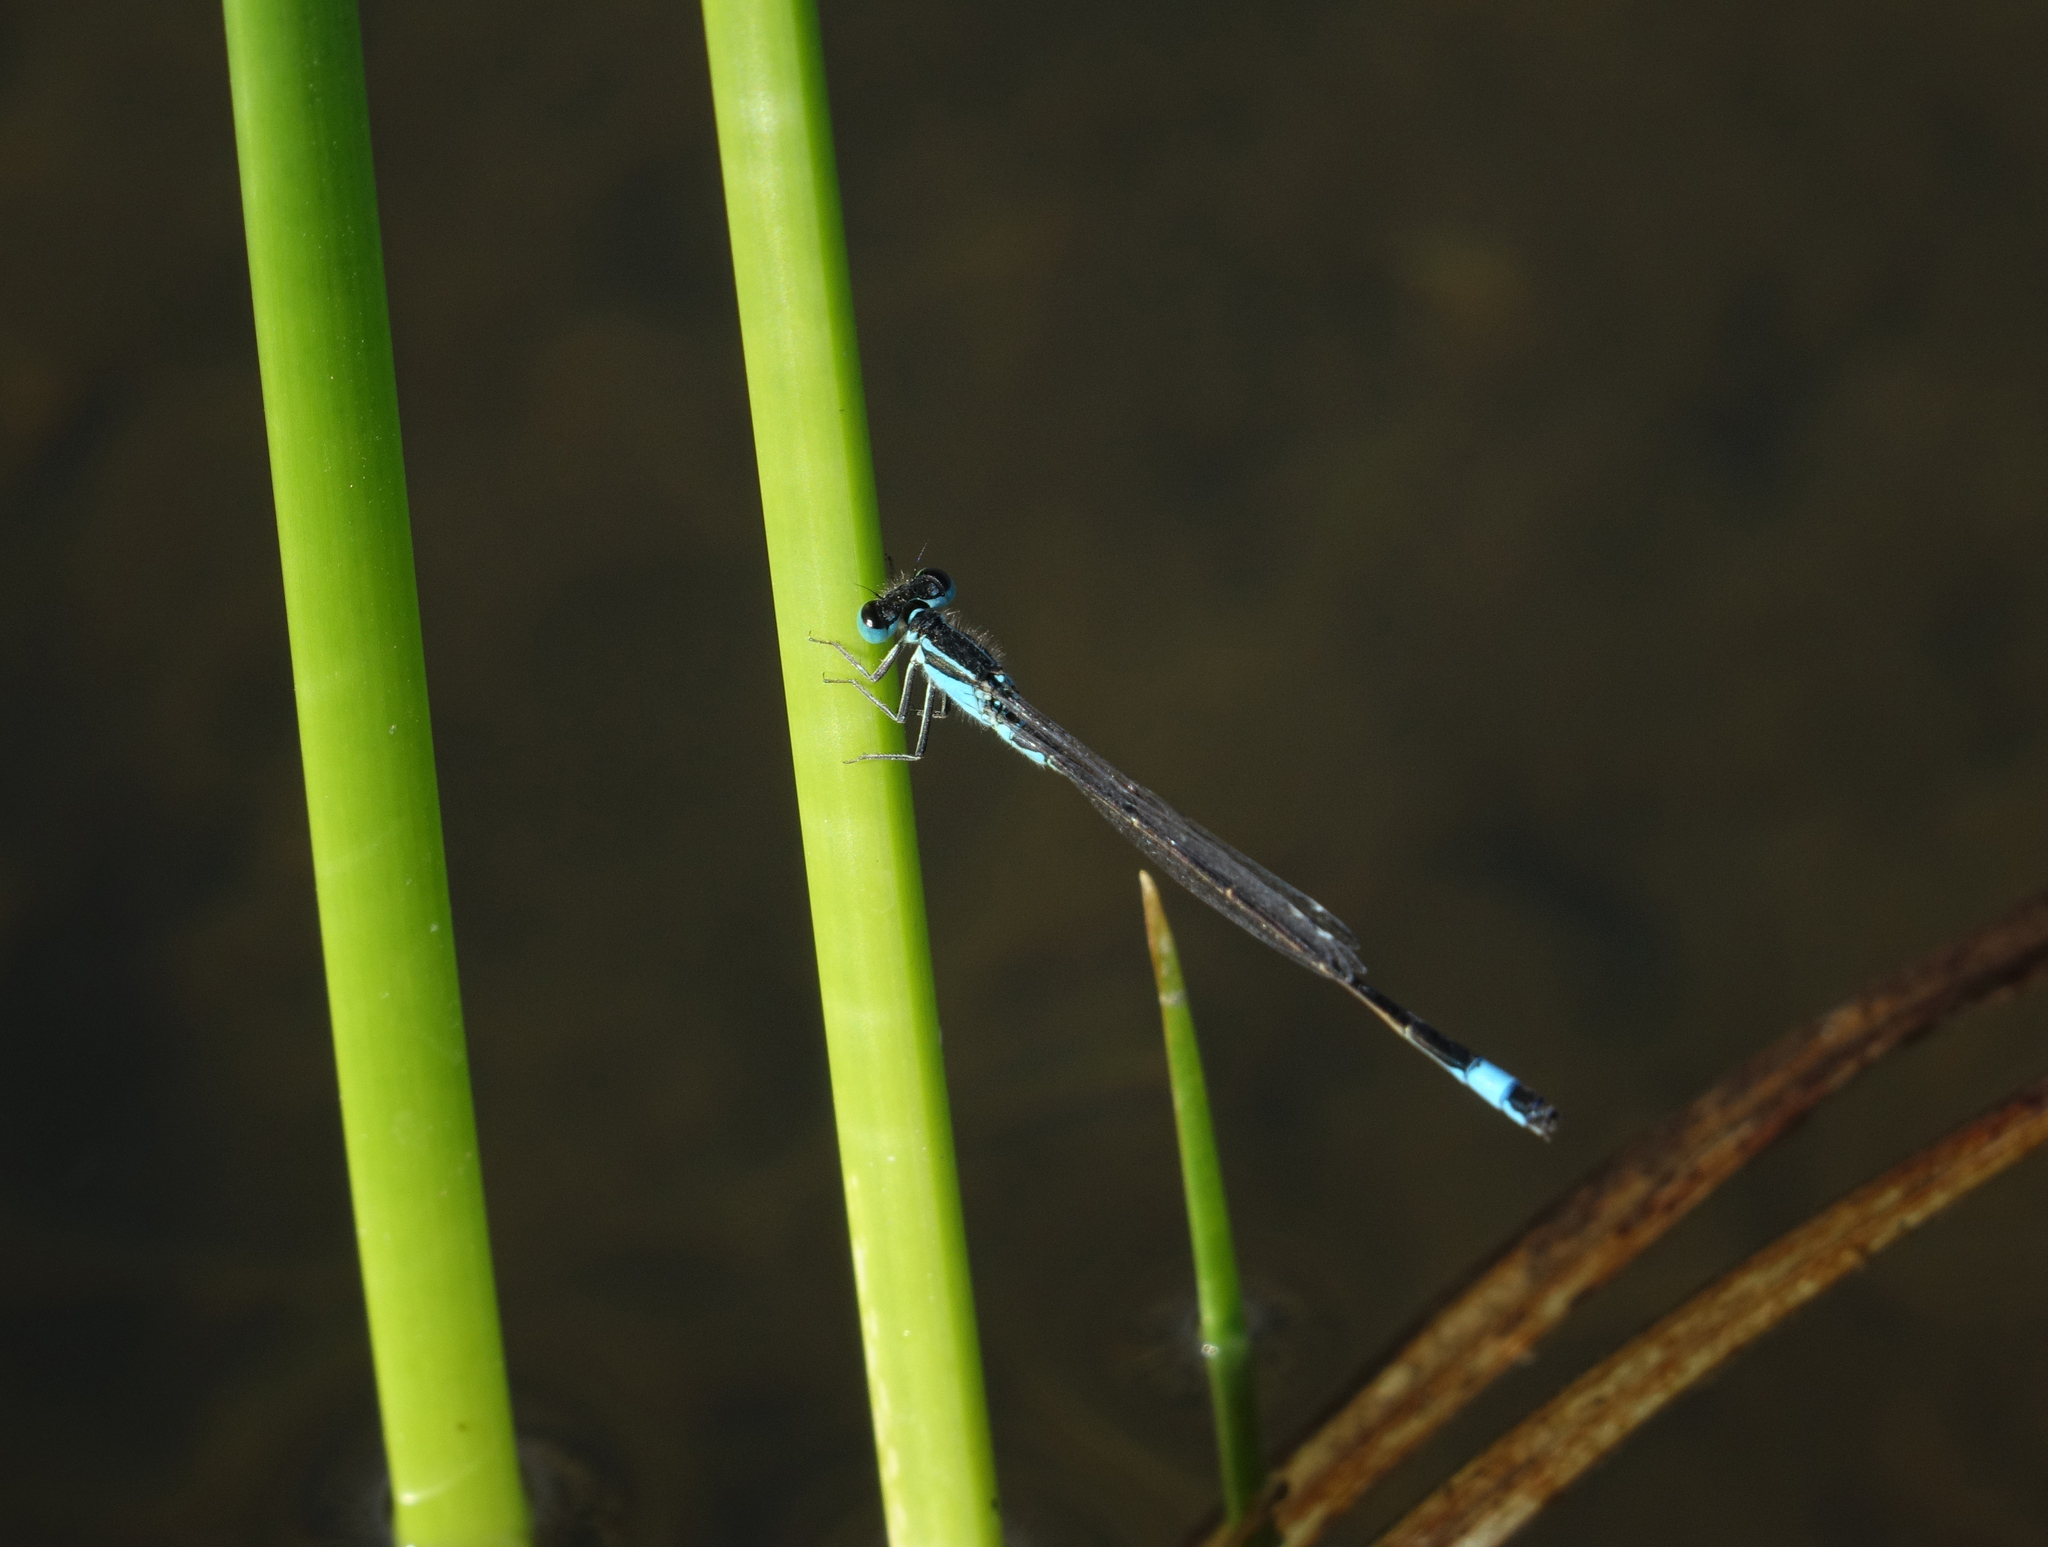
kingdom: Animalia
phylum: Arthropoda
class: Insecta
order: Odonata
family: Coenagrionidae
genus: Ischnura
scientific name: Ischnura elegans
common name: Blue-tailed damselfly
